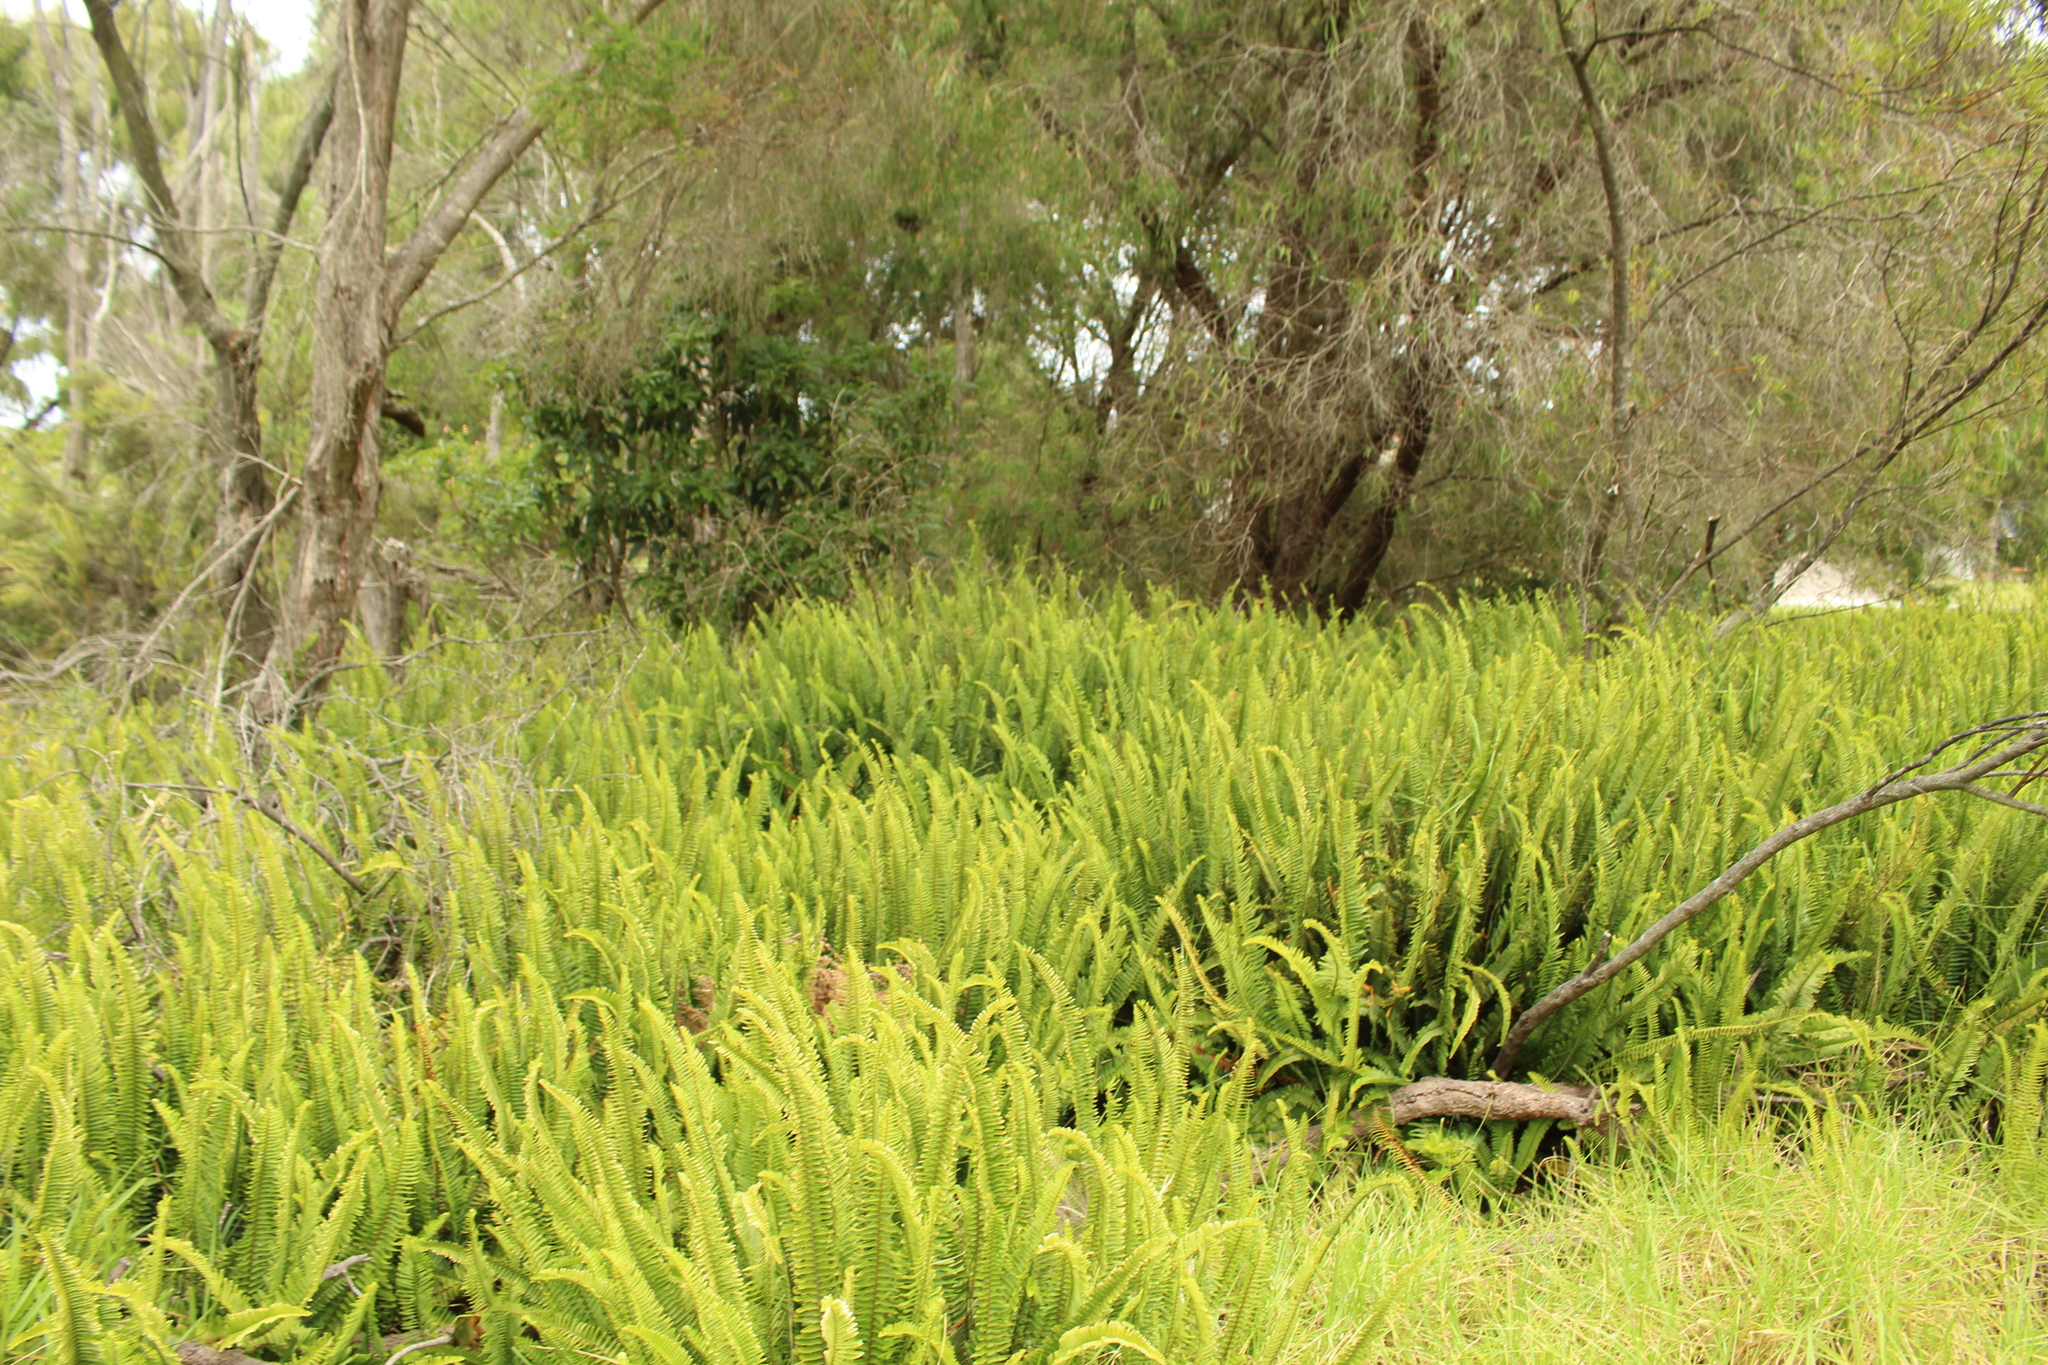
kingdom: Plantae
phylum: Tracheophyta
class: Polypodiopsida
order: Polypodiales
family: Nephrolepidaceae
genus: Nephrolepis
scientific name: Nephrolepis cordifolia
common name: Narrow swordfern
